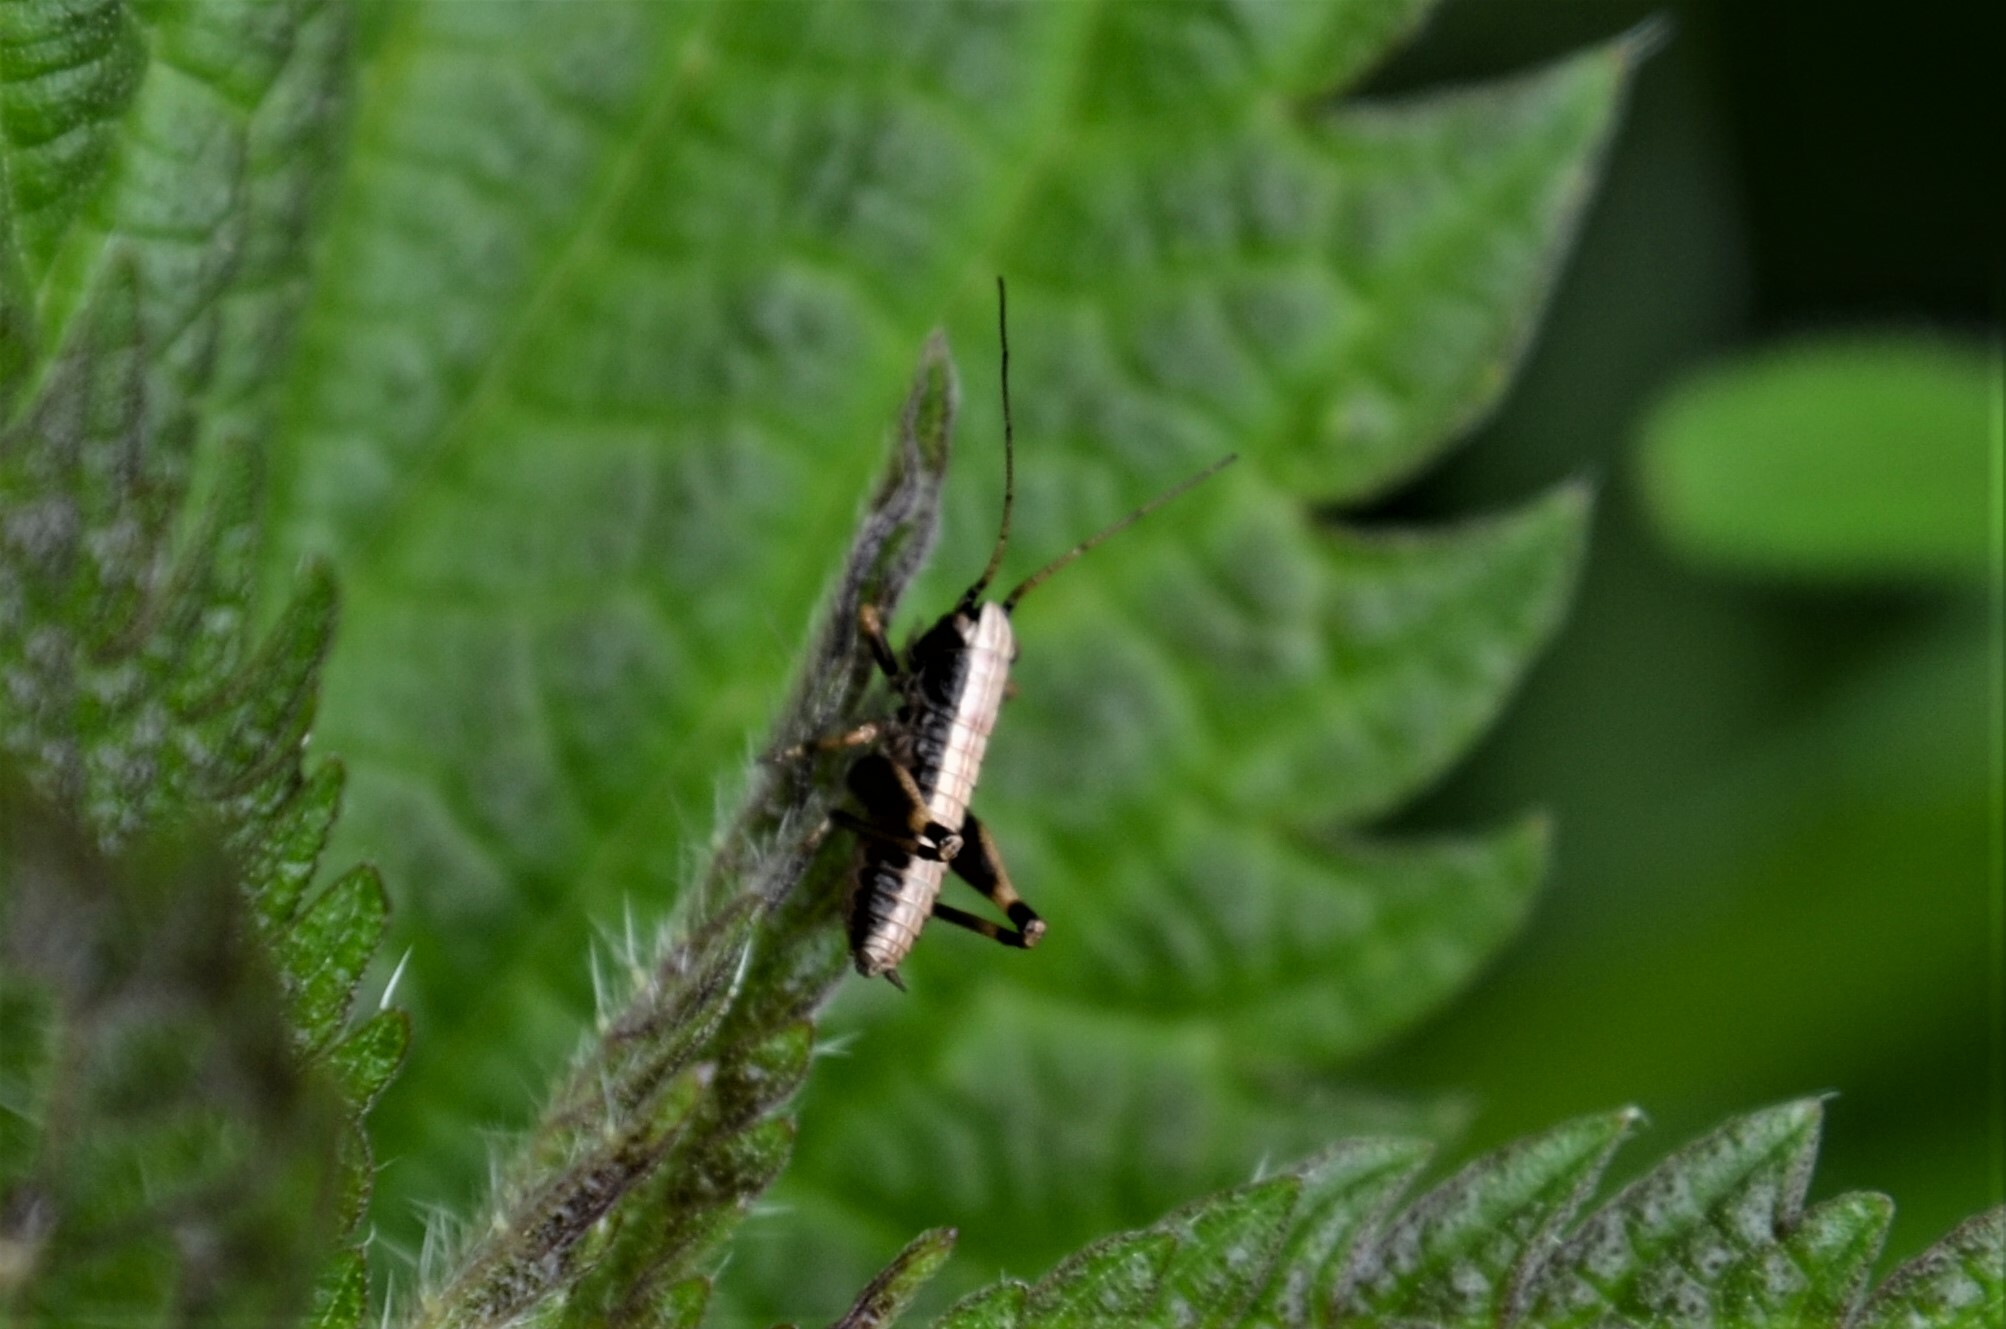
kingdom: Animalia
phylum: Arthropoda
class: Insecta
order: Orthoptera
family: Tettigoniidae
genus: Pholidoptera
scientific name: Pholidoptera griseoaptera
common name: Dark bush-cricket
